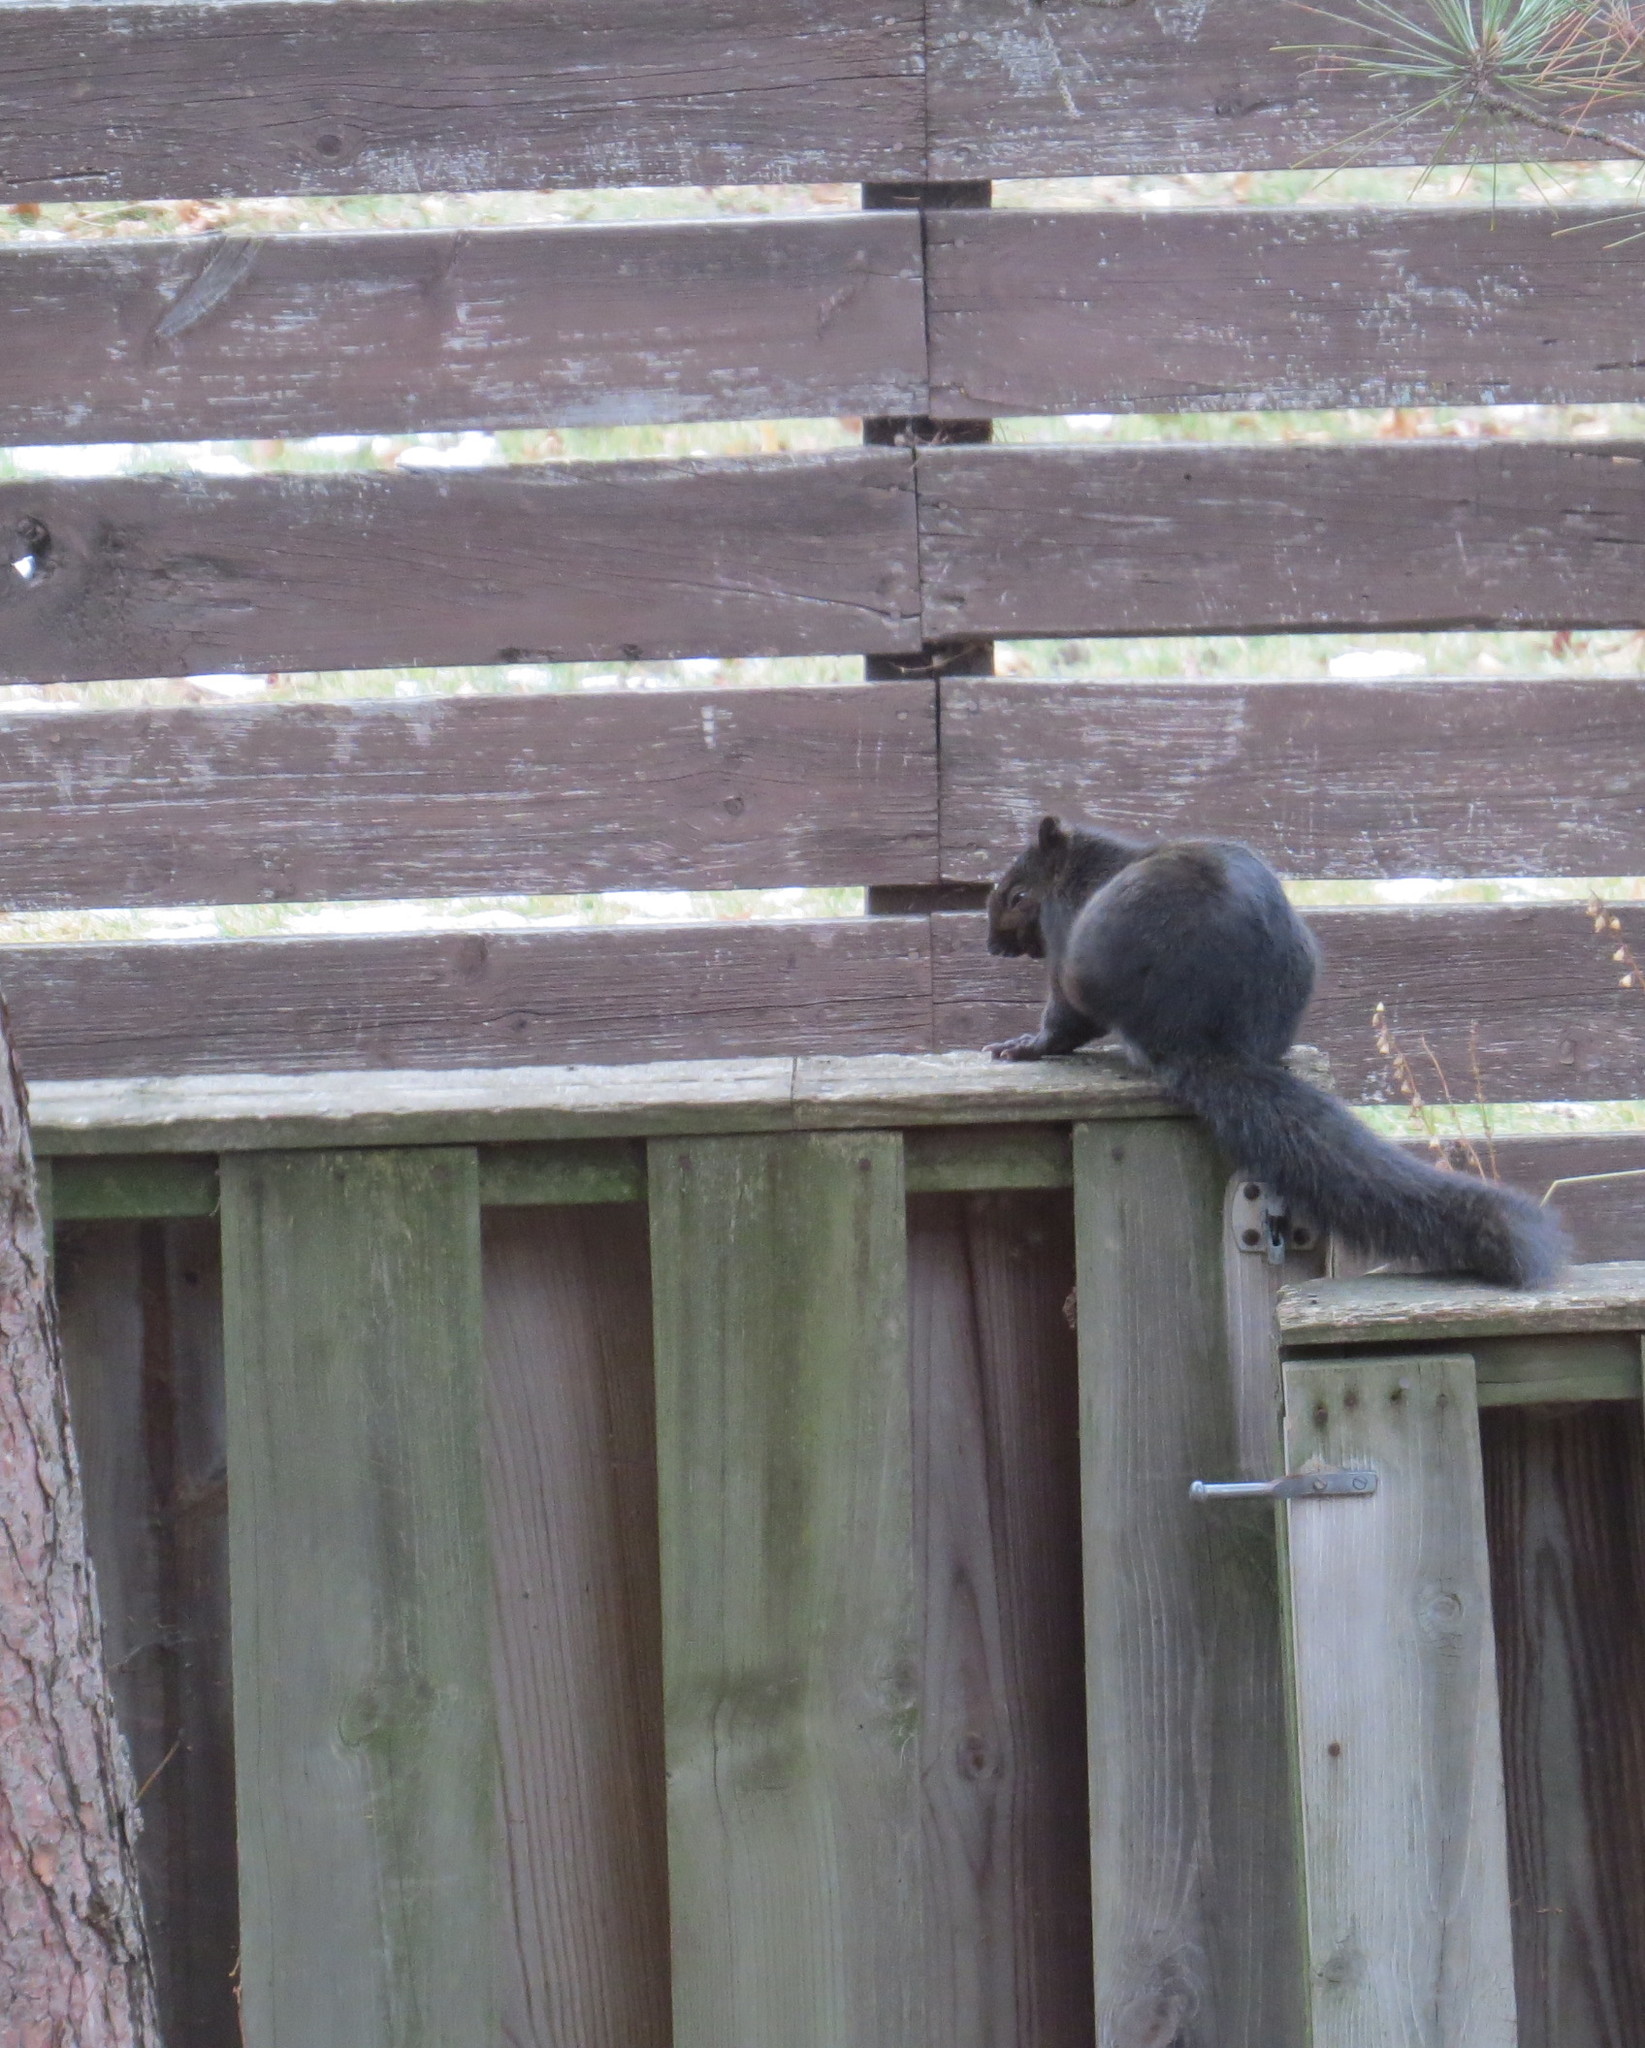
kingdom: Animalia
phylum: Chordata
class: Mammalia
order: Rodentia
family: Sciuridae
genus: Sciurus
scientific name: Sciurus carolinensis
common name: Eastern gray squirrel
